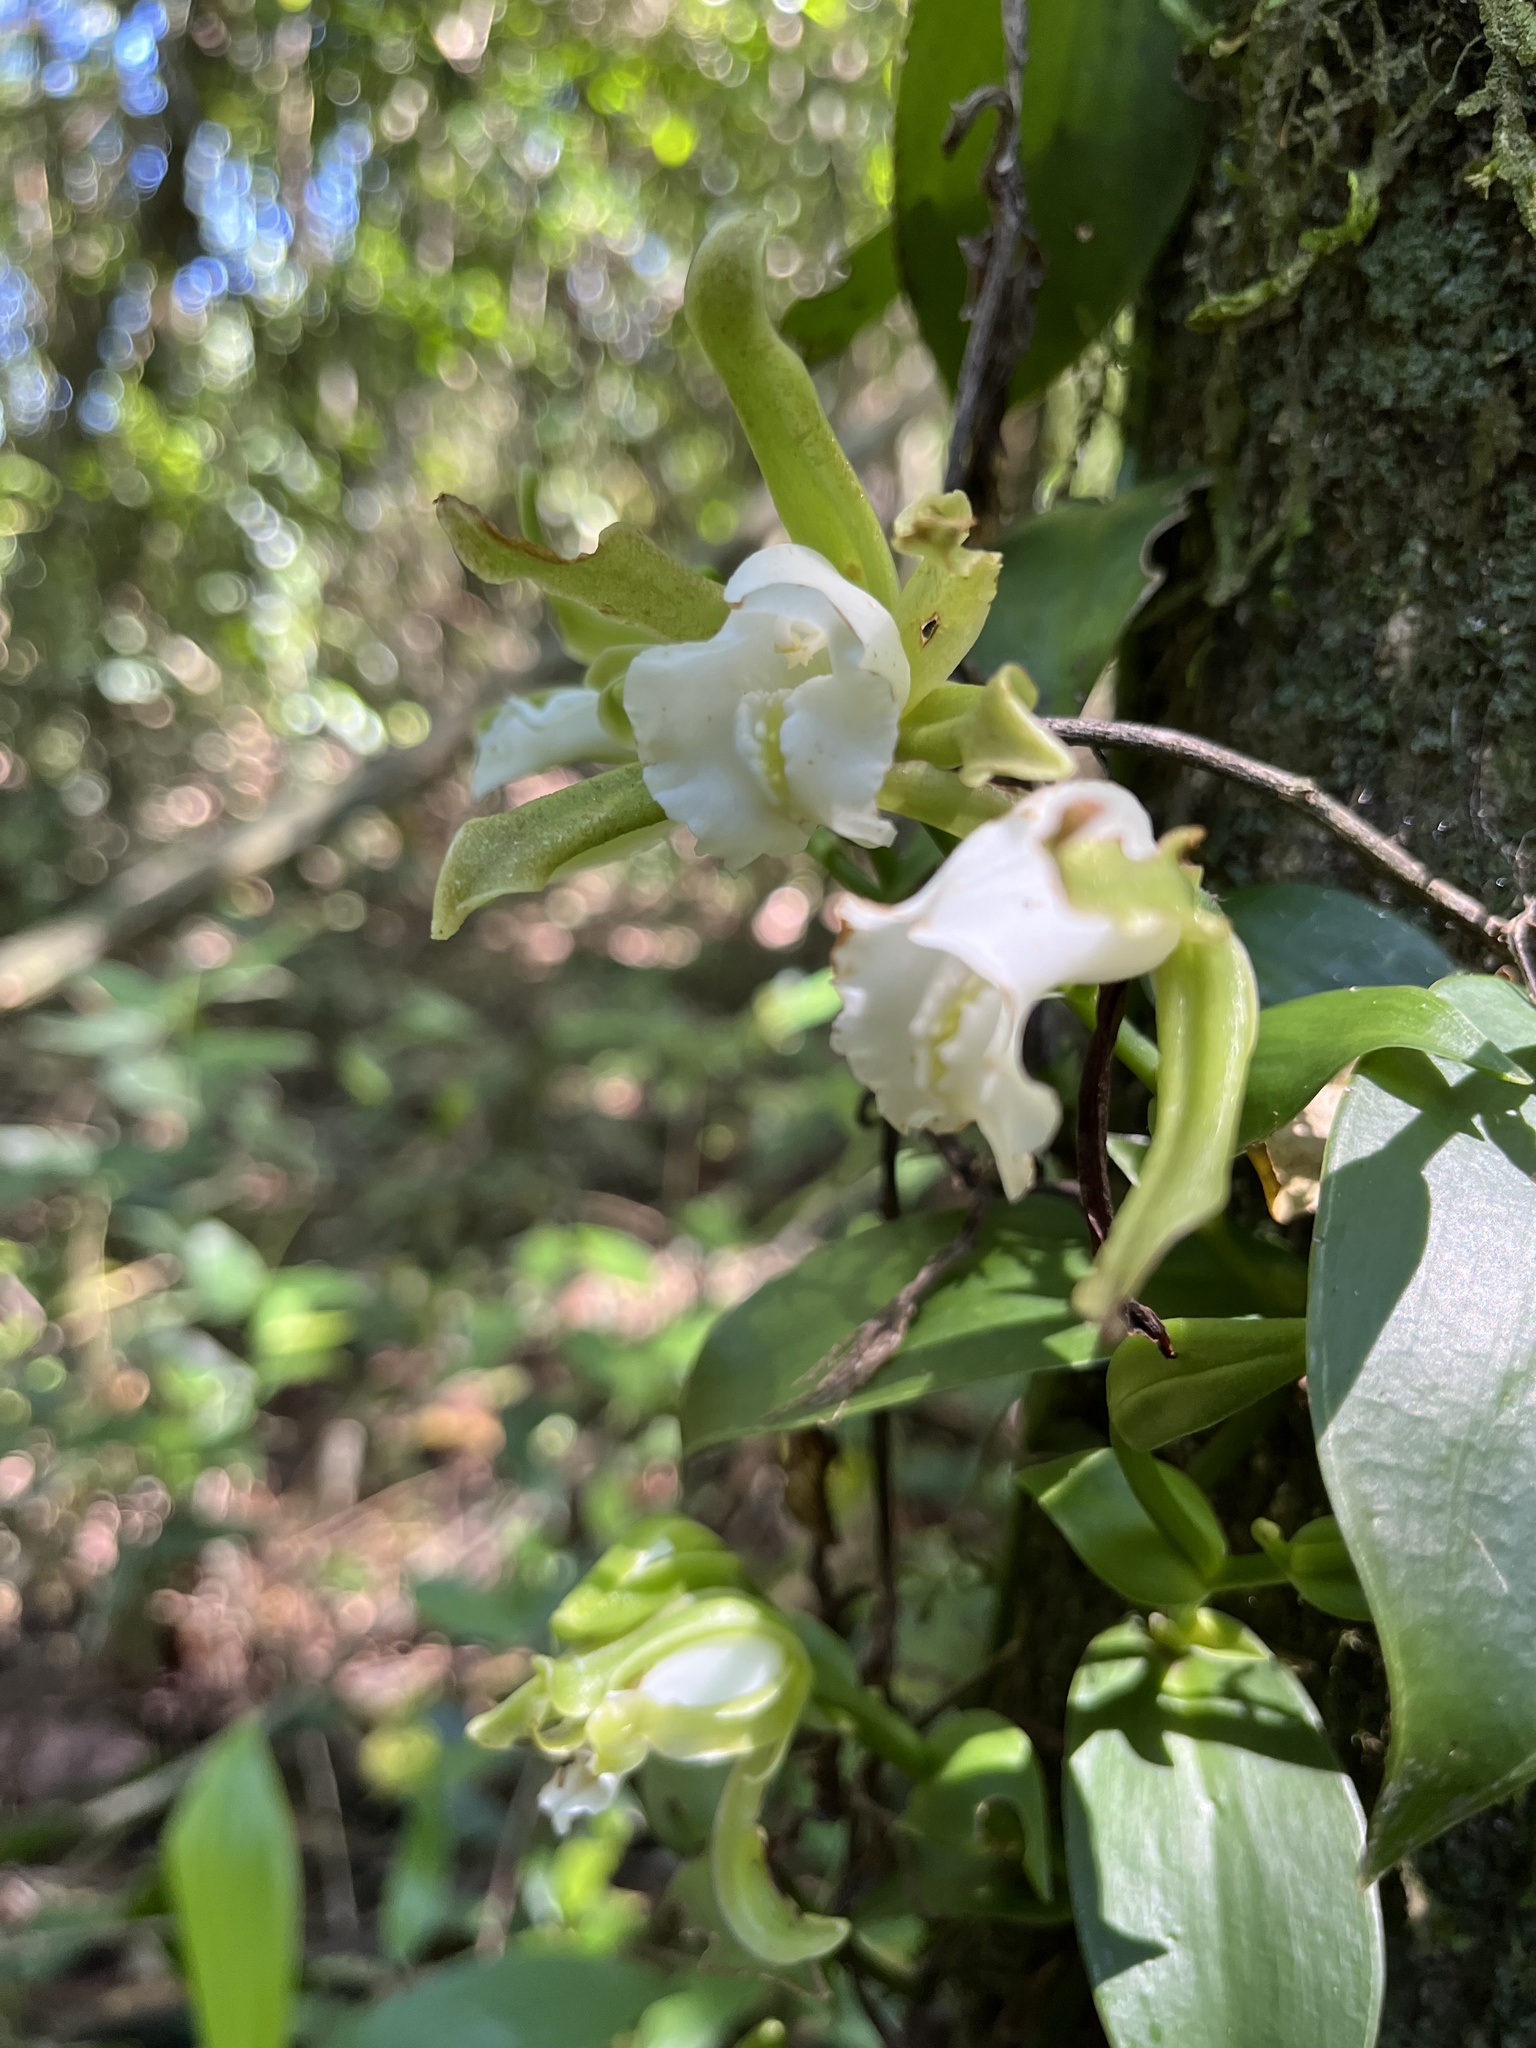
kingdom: Plantae
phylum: Tracheophyta
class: Liliopsida
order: Asparagales
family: Orchidaceae
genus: Vanilla
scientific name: Vanilla angustipetala
